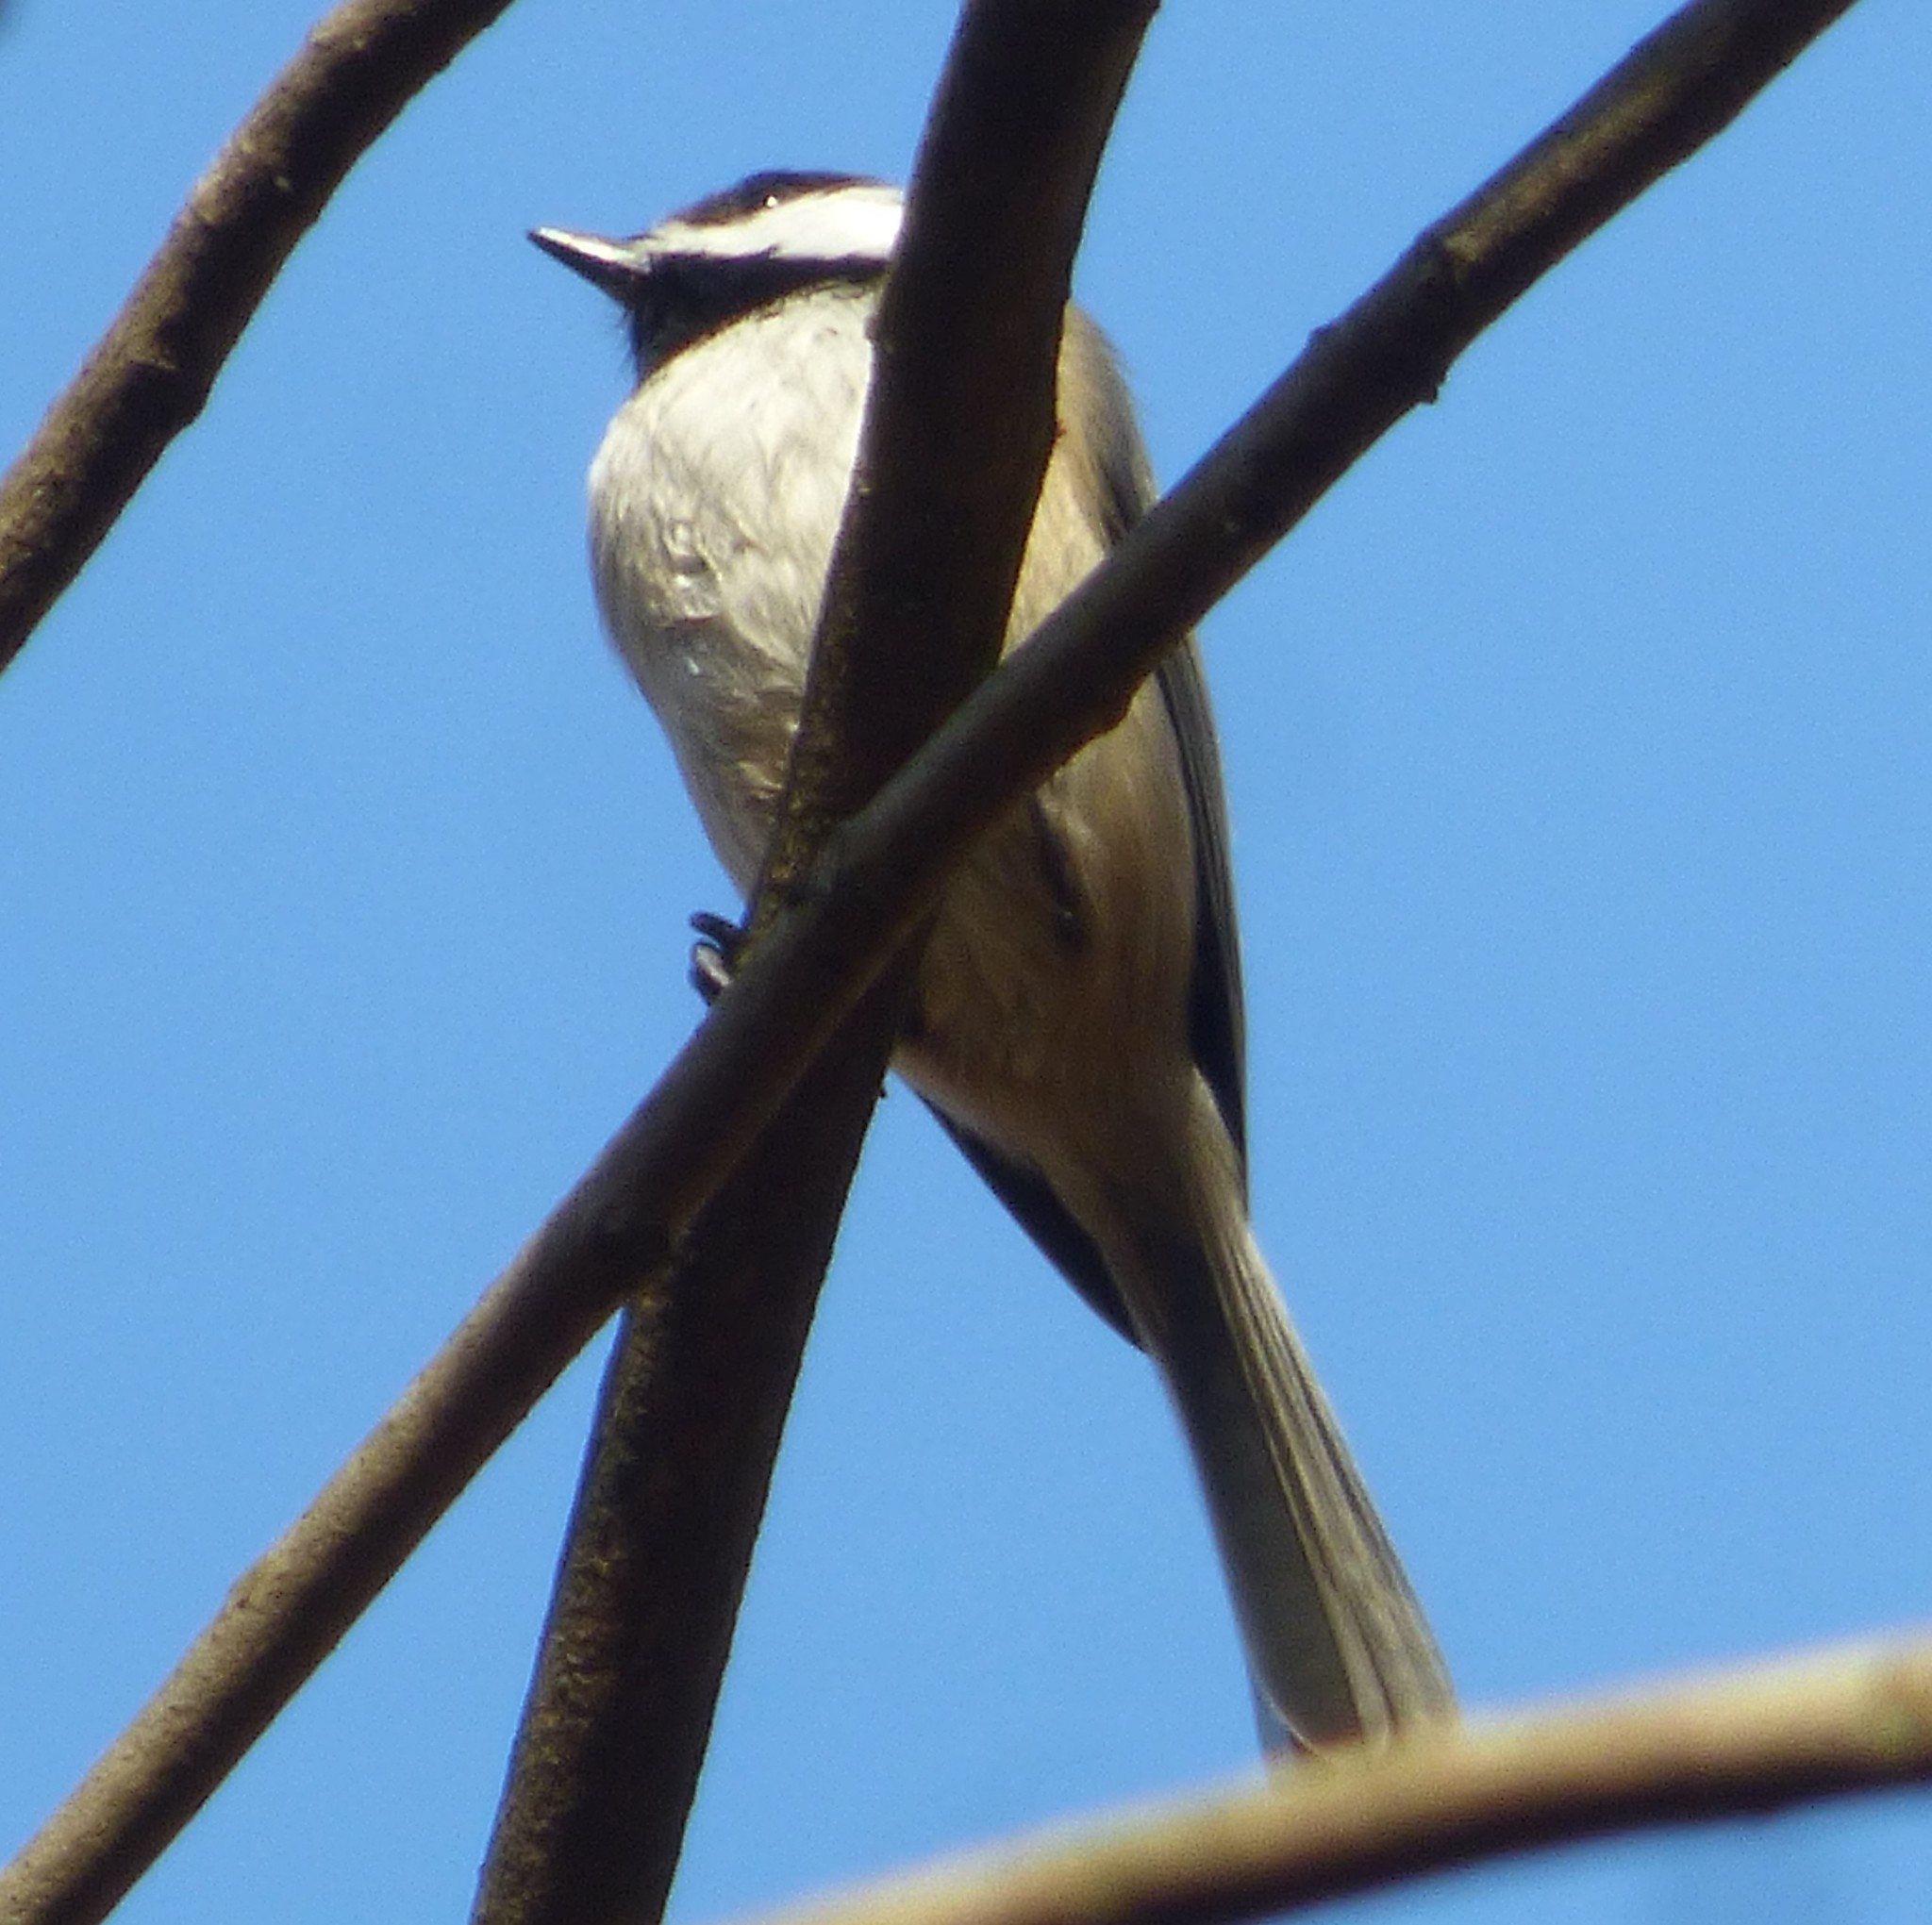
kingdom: Animalia
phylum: Chordata
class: Aves
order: Passeriformes
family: Paridae
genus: Poecile
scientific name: Poecile carolinensis
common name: Carolina chickadee
